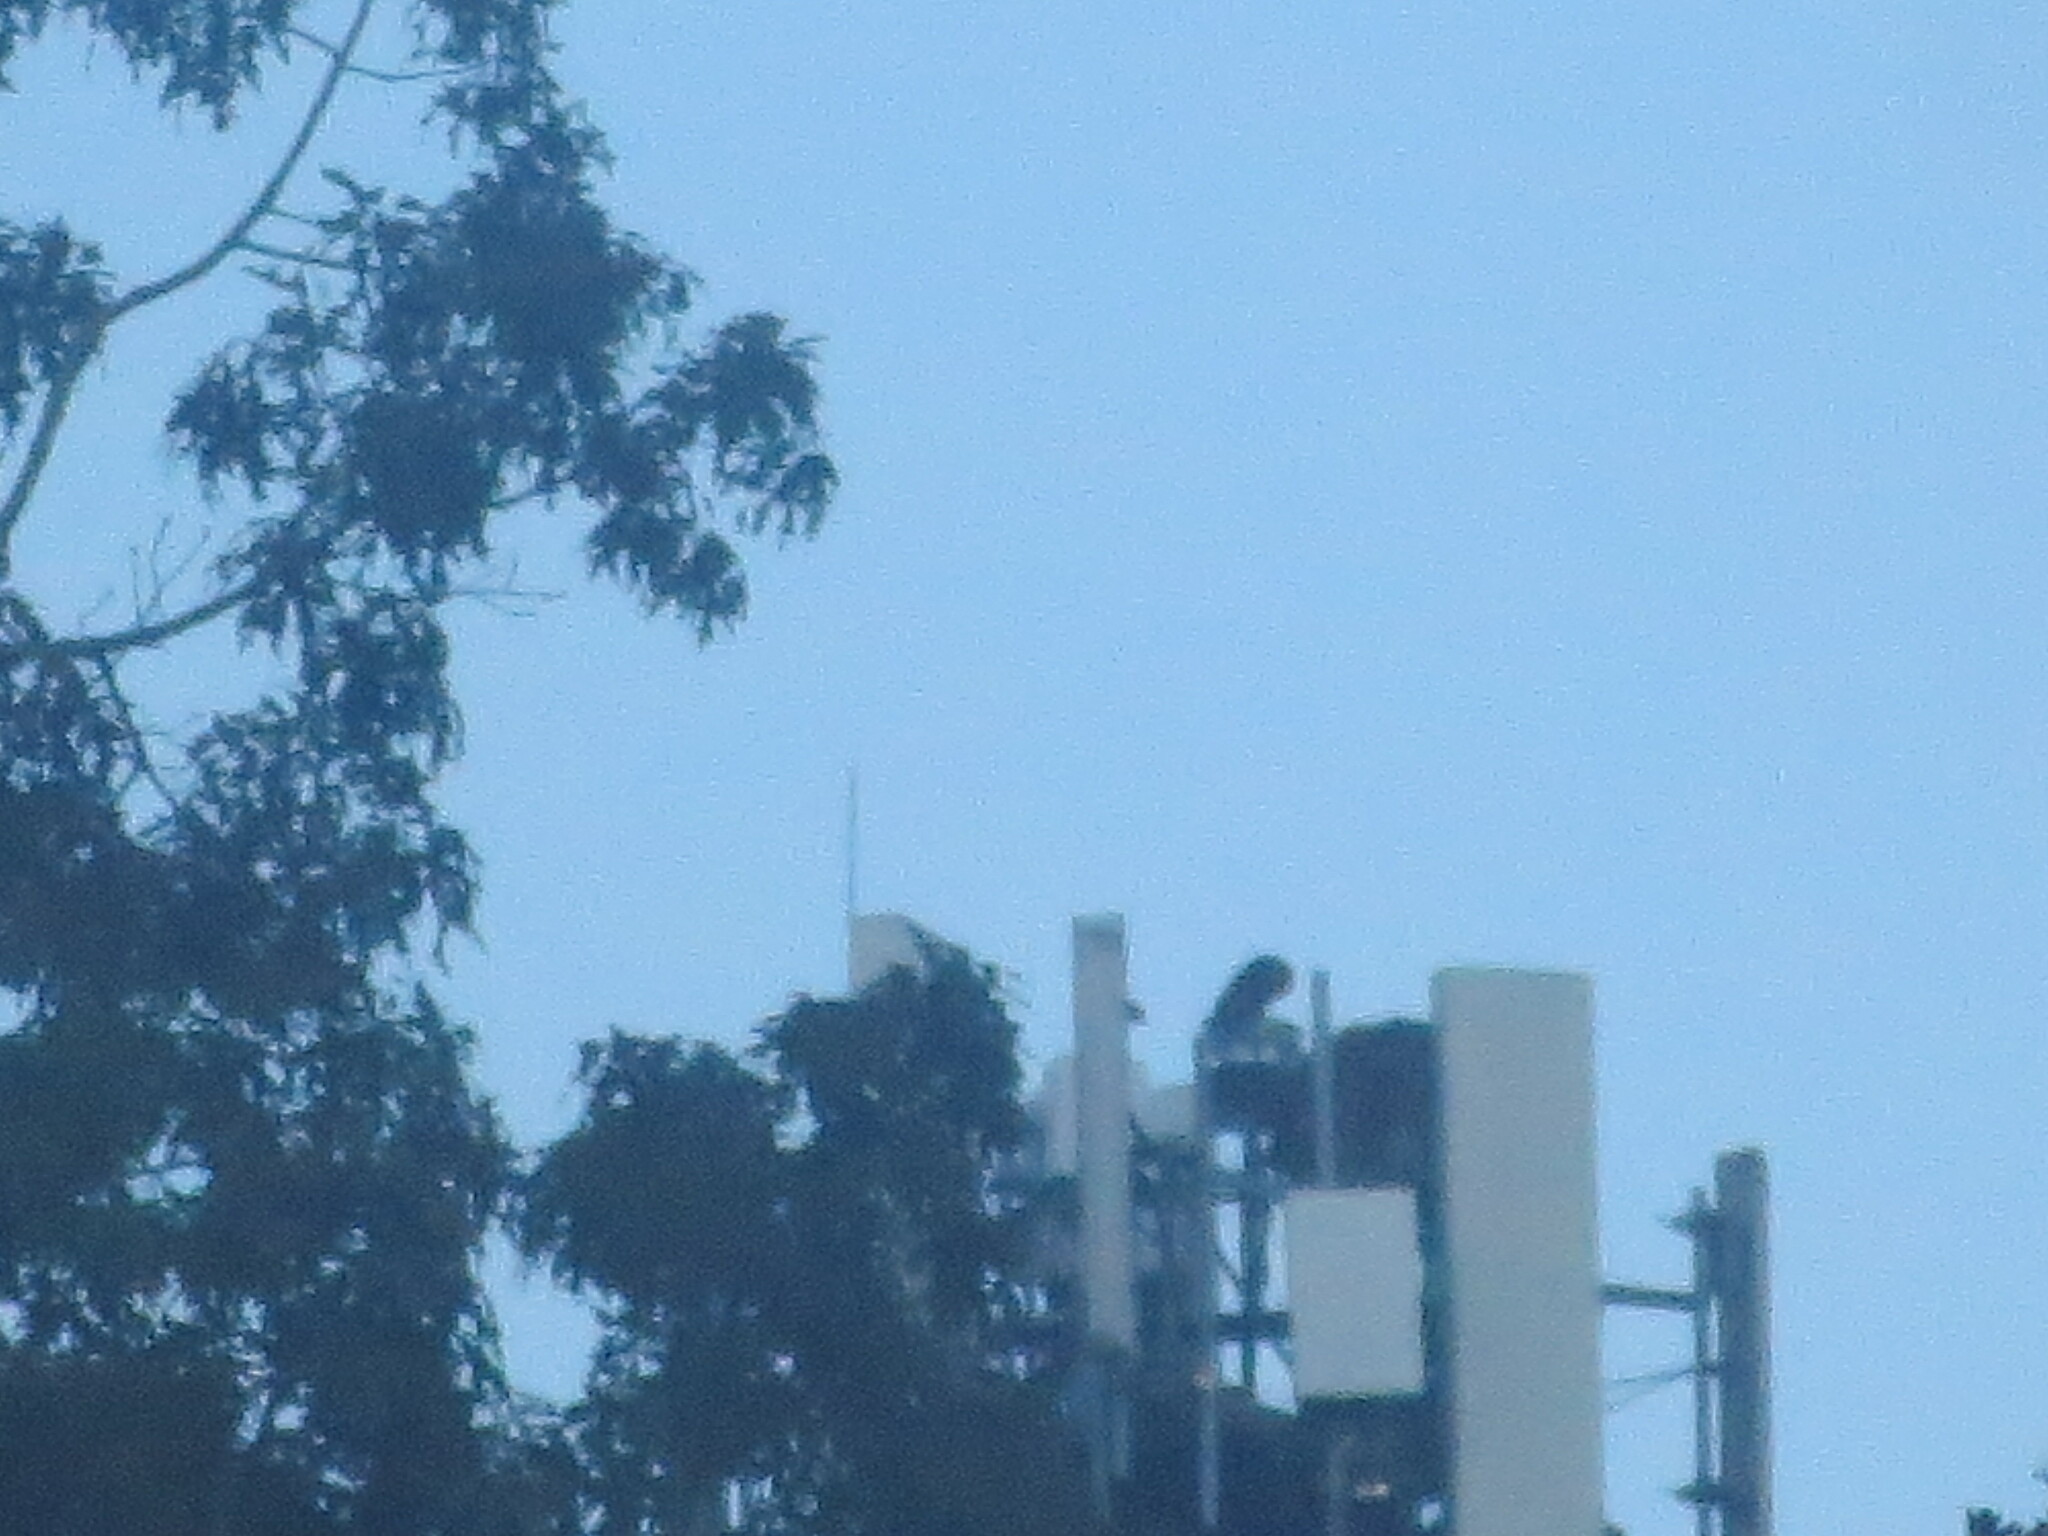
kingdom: Animalia
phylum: Chordata
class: Aves
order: Accipitriformes
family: Pandionidae
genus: Pandion
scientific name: Pandion haliaetus
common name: Osprey
